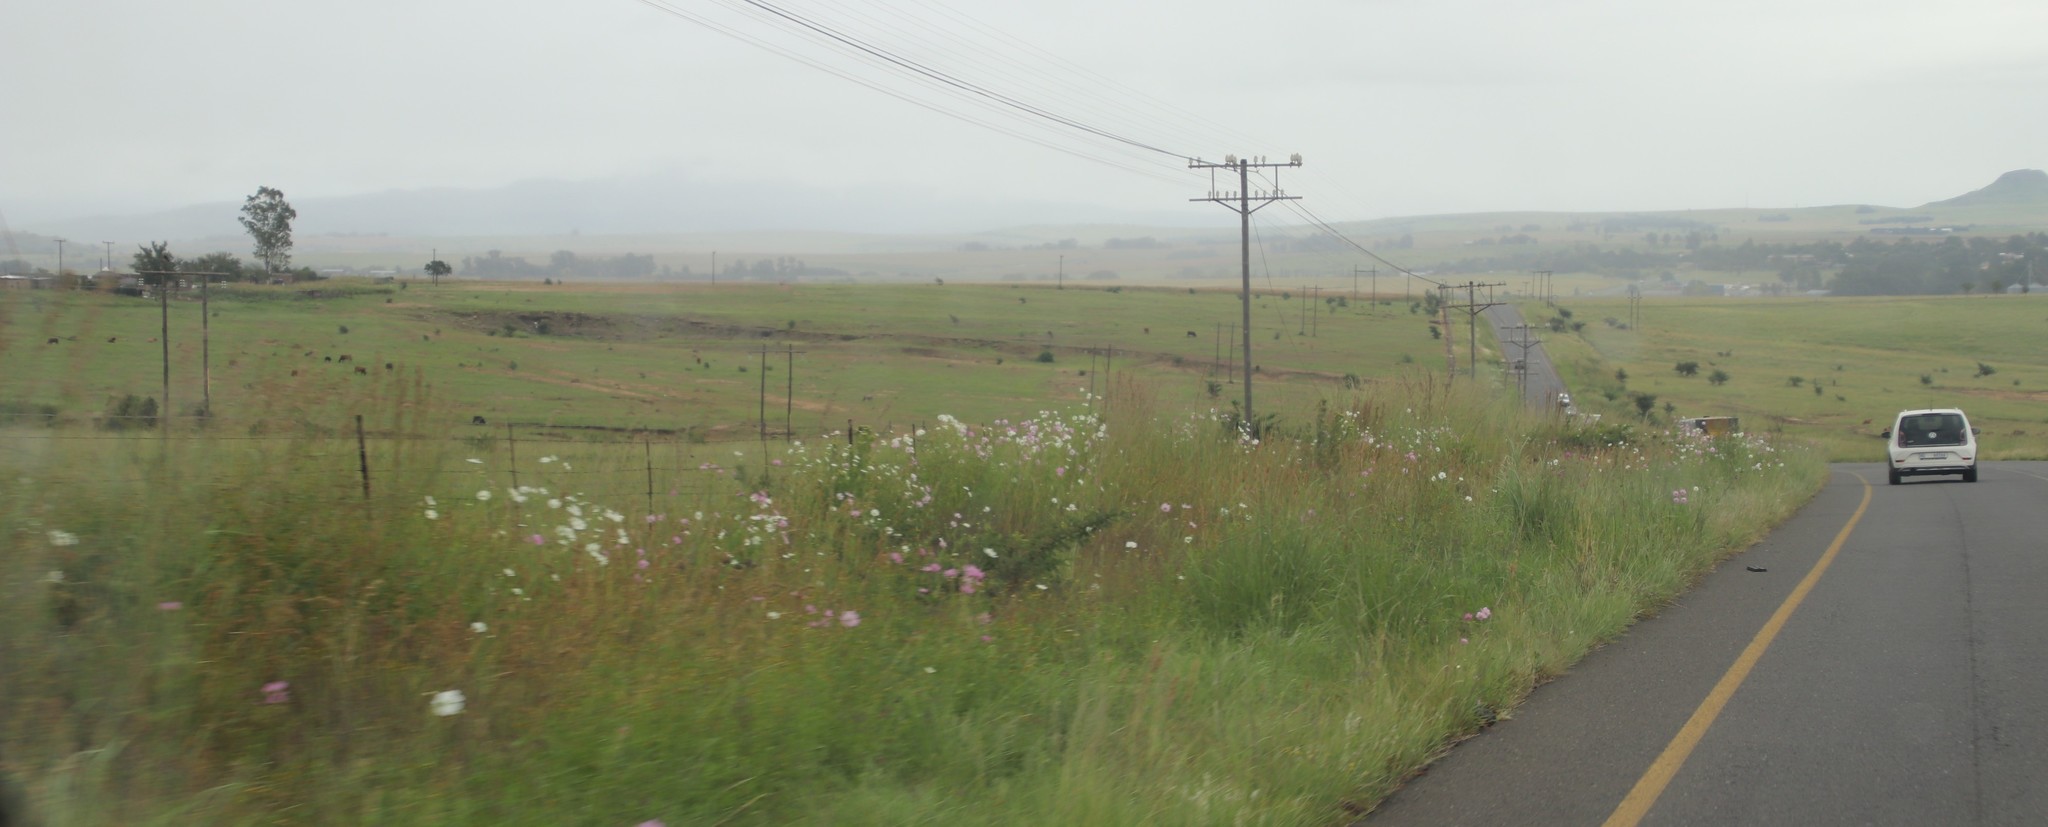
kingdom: Plantae
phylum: Tracheophyta
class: Magnoliopsida
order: Asterales
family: Asteraceae
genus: Cosmos
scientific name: Cosmos bipinnatus
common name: Garden cosmos
